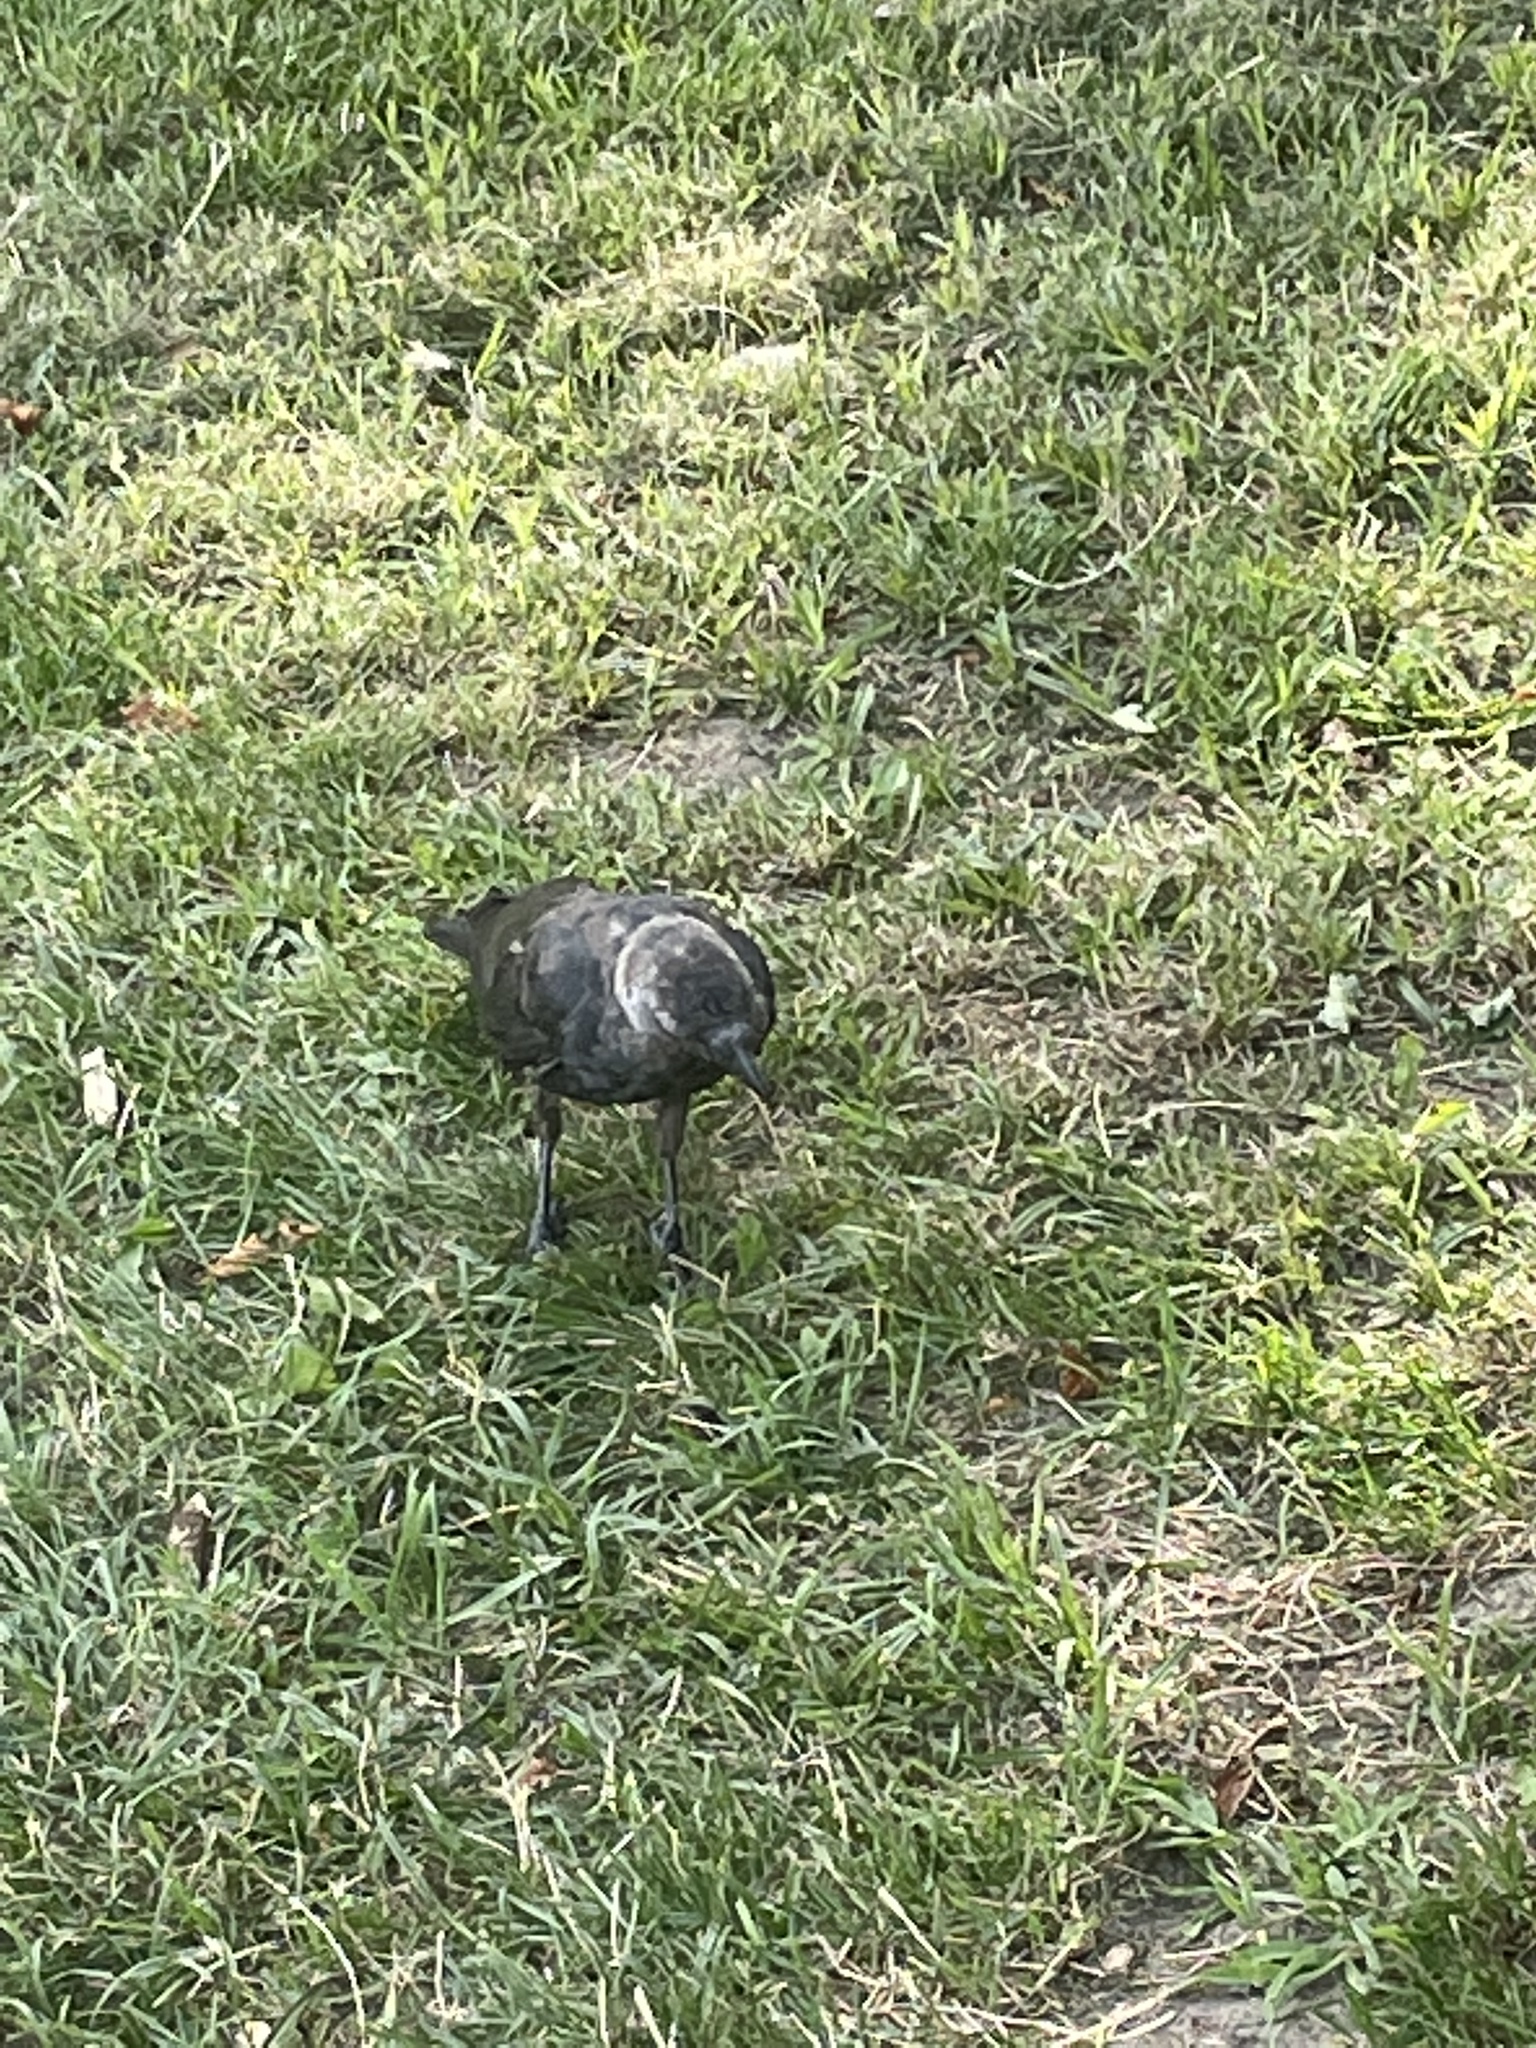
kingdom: Animalia
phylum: Chordata
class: Aves
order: Passeriformes
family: Corvidae
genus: Coloeus
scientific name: Coloeus monedula
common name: Western jackdaw
